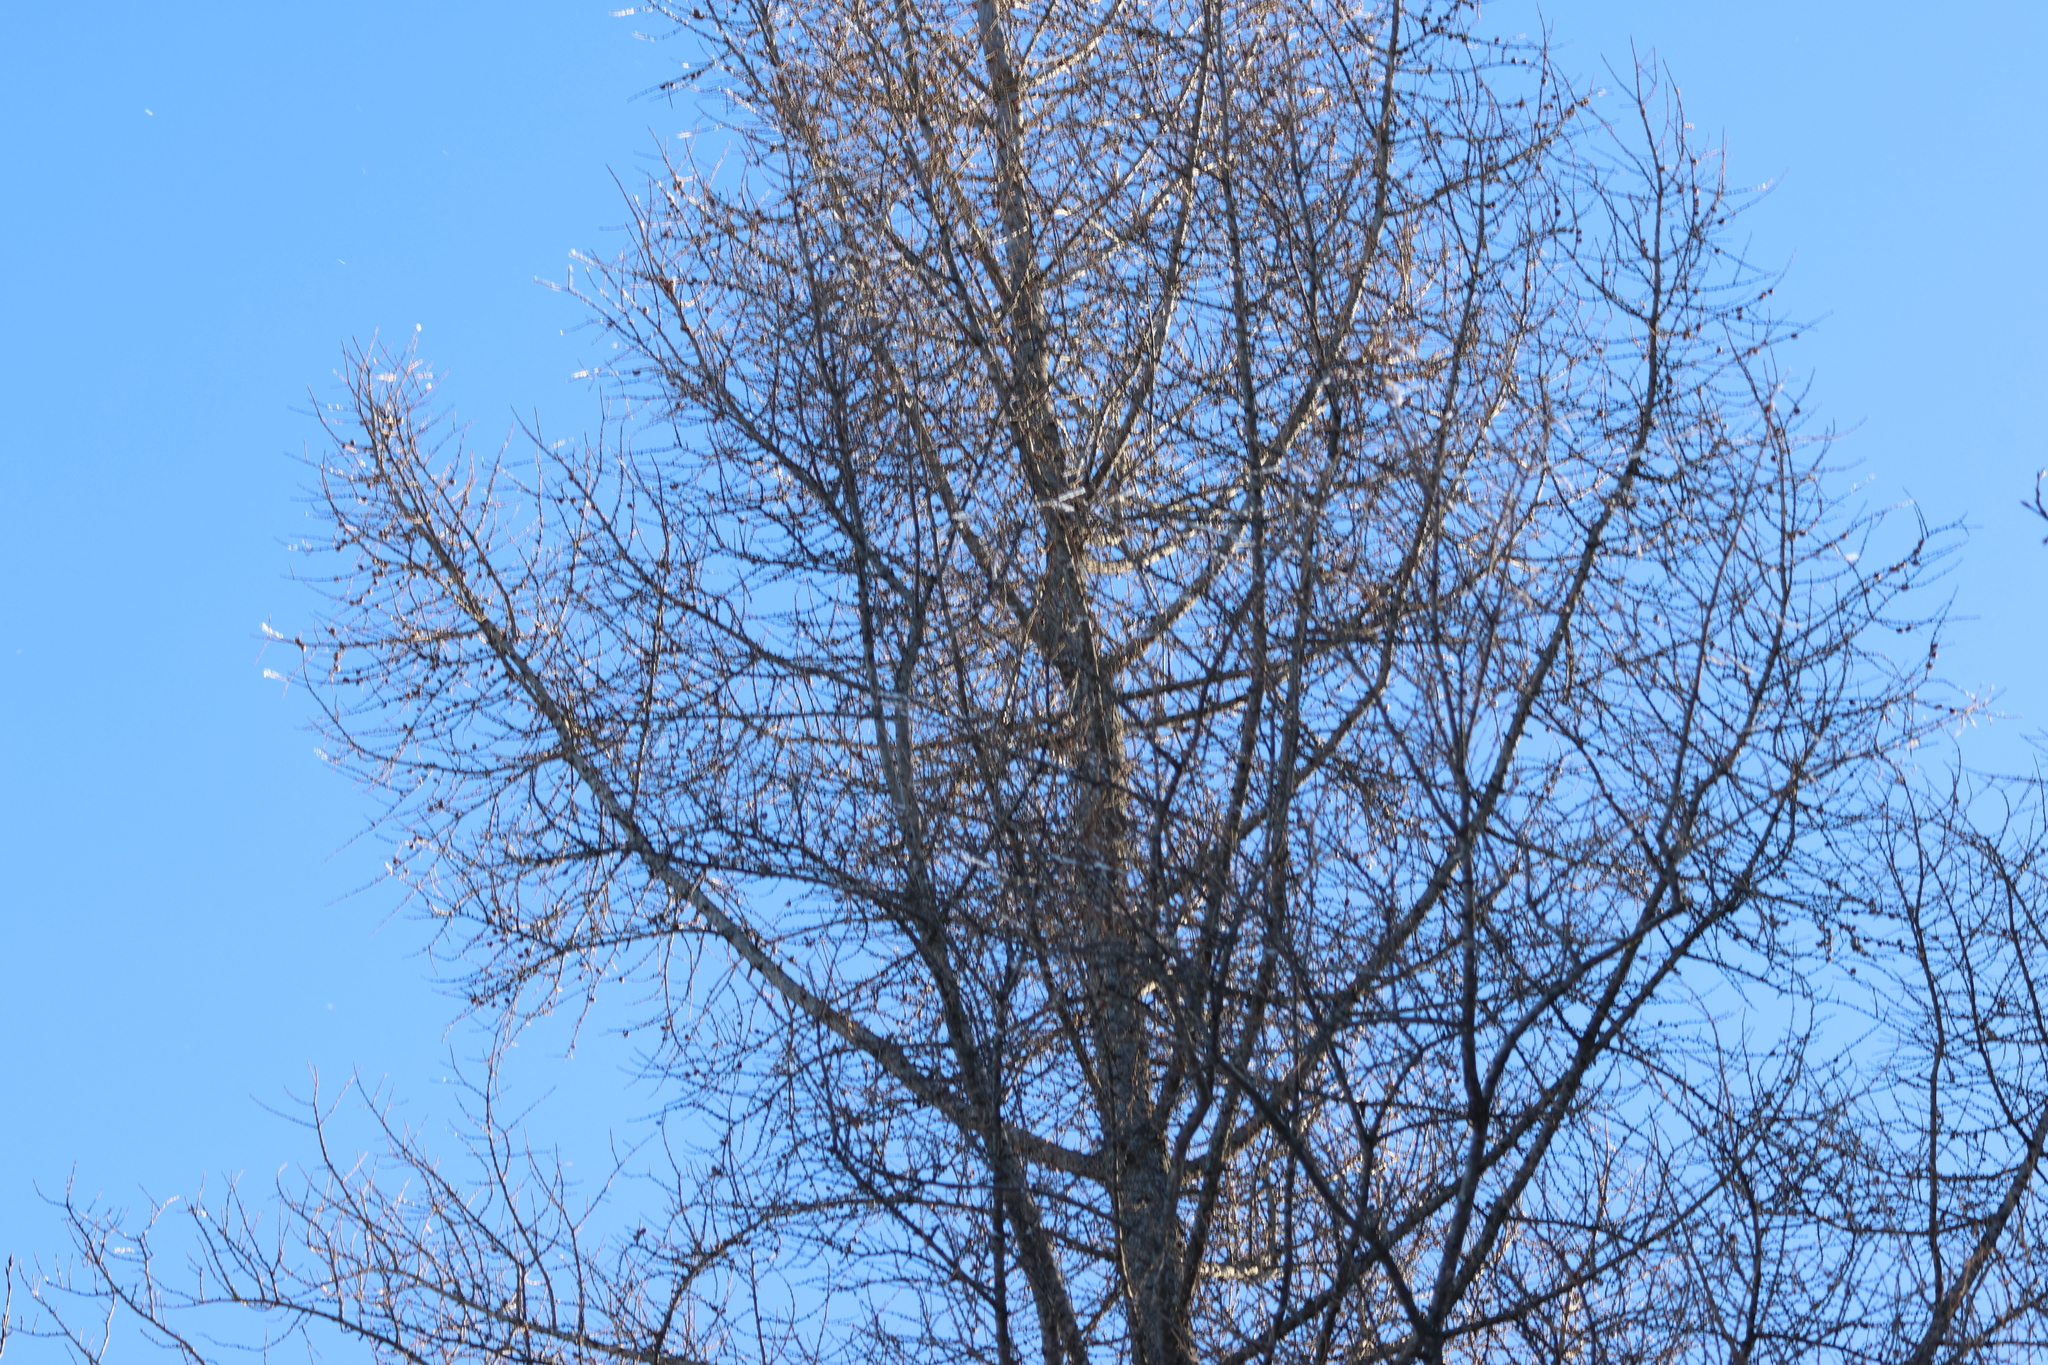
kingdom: Plantae
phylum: Tracheophyta
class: Pinopsida
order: Pinales
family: Pinaceae
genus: Larix
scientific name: Larix laricina
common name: American larch
